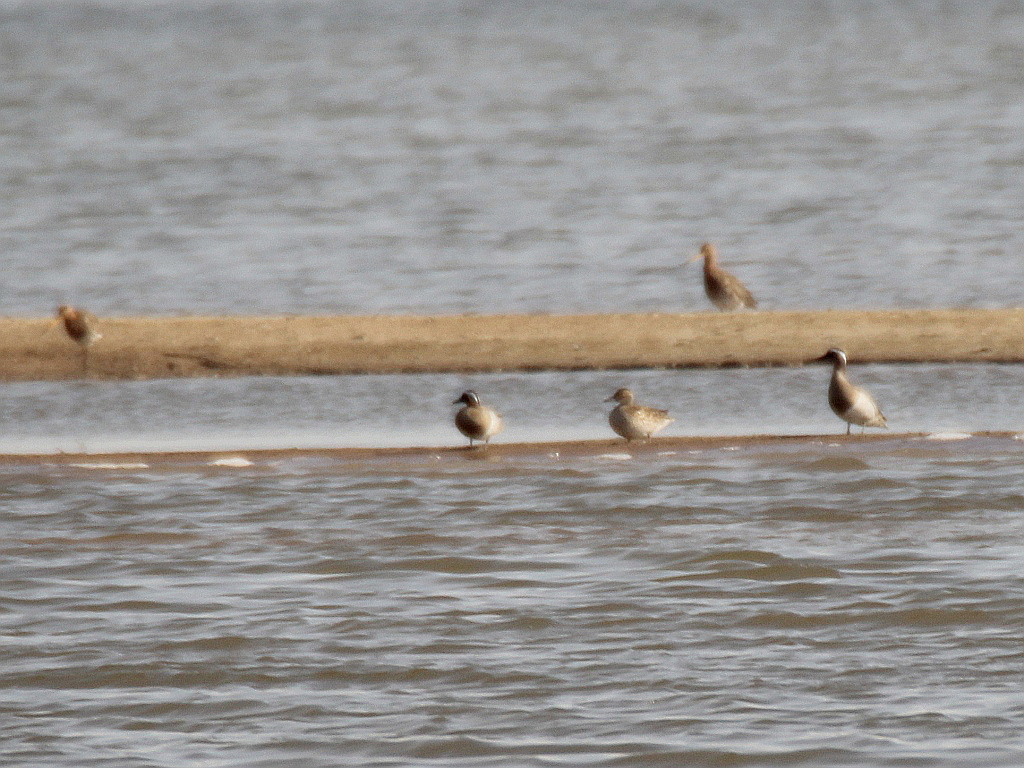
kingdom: Animalia
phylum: Chordata
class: Aves
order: Anseriformes
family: Anatidae
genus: Spatula
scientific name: Spatula querquedula
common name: Garganey
